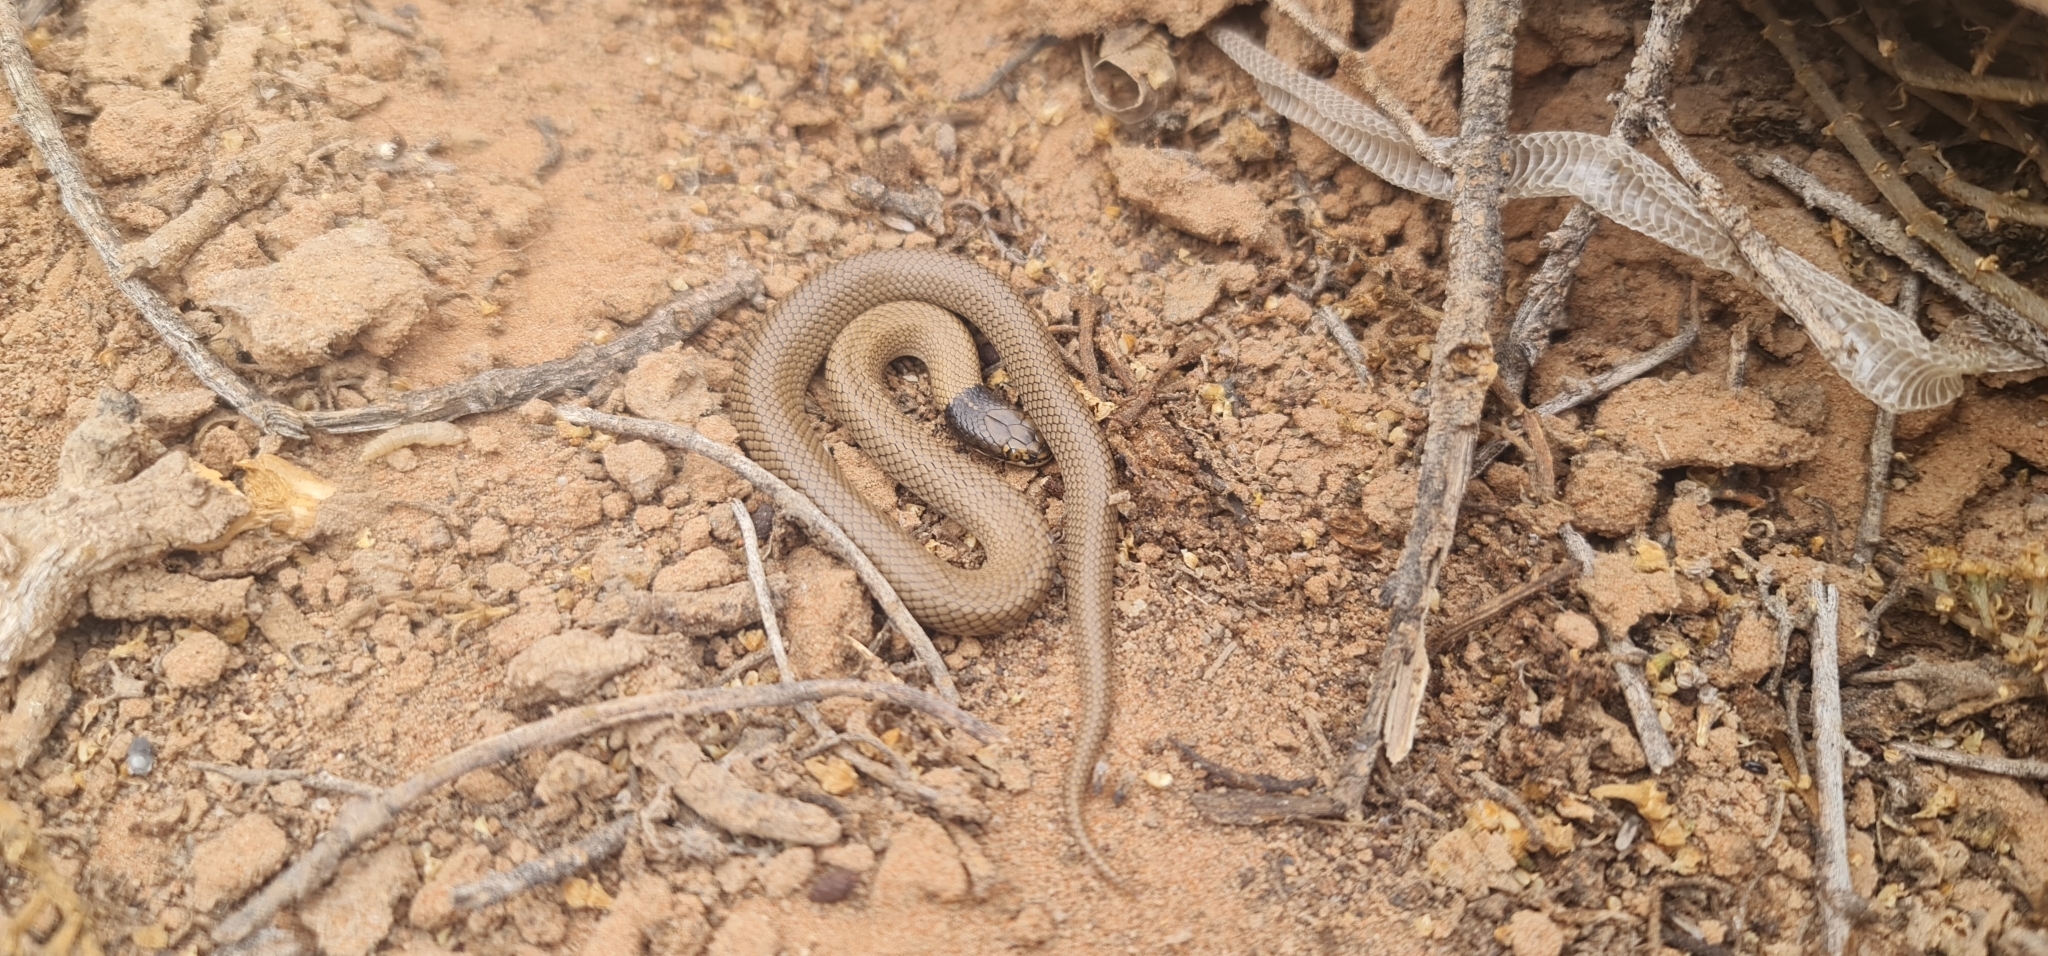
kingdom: Animalia
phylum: Chordata
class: Squamata
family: Elapidae
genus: Suta
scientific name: Suta suta
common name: Curl snake
